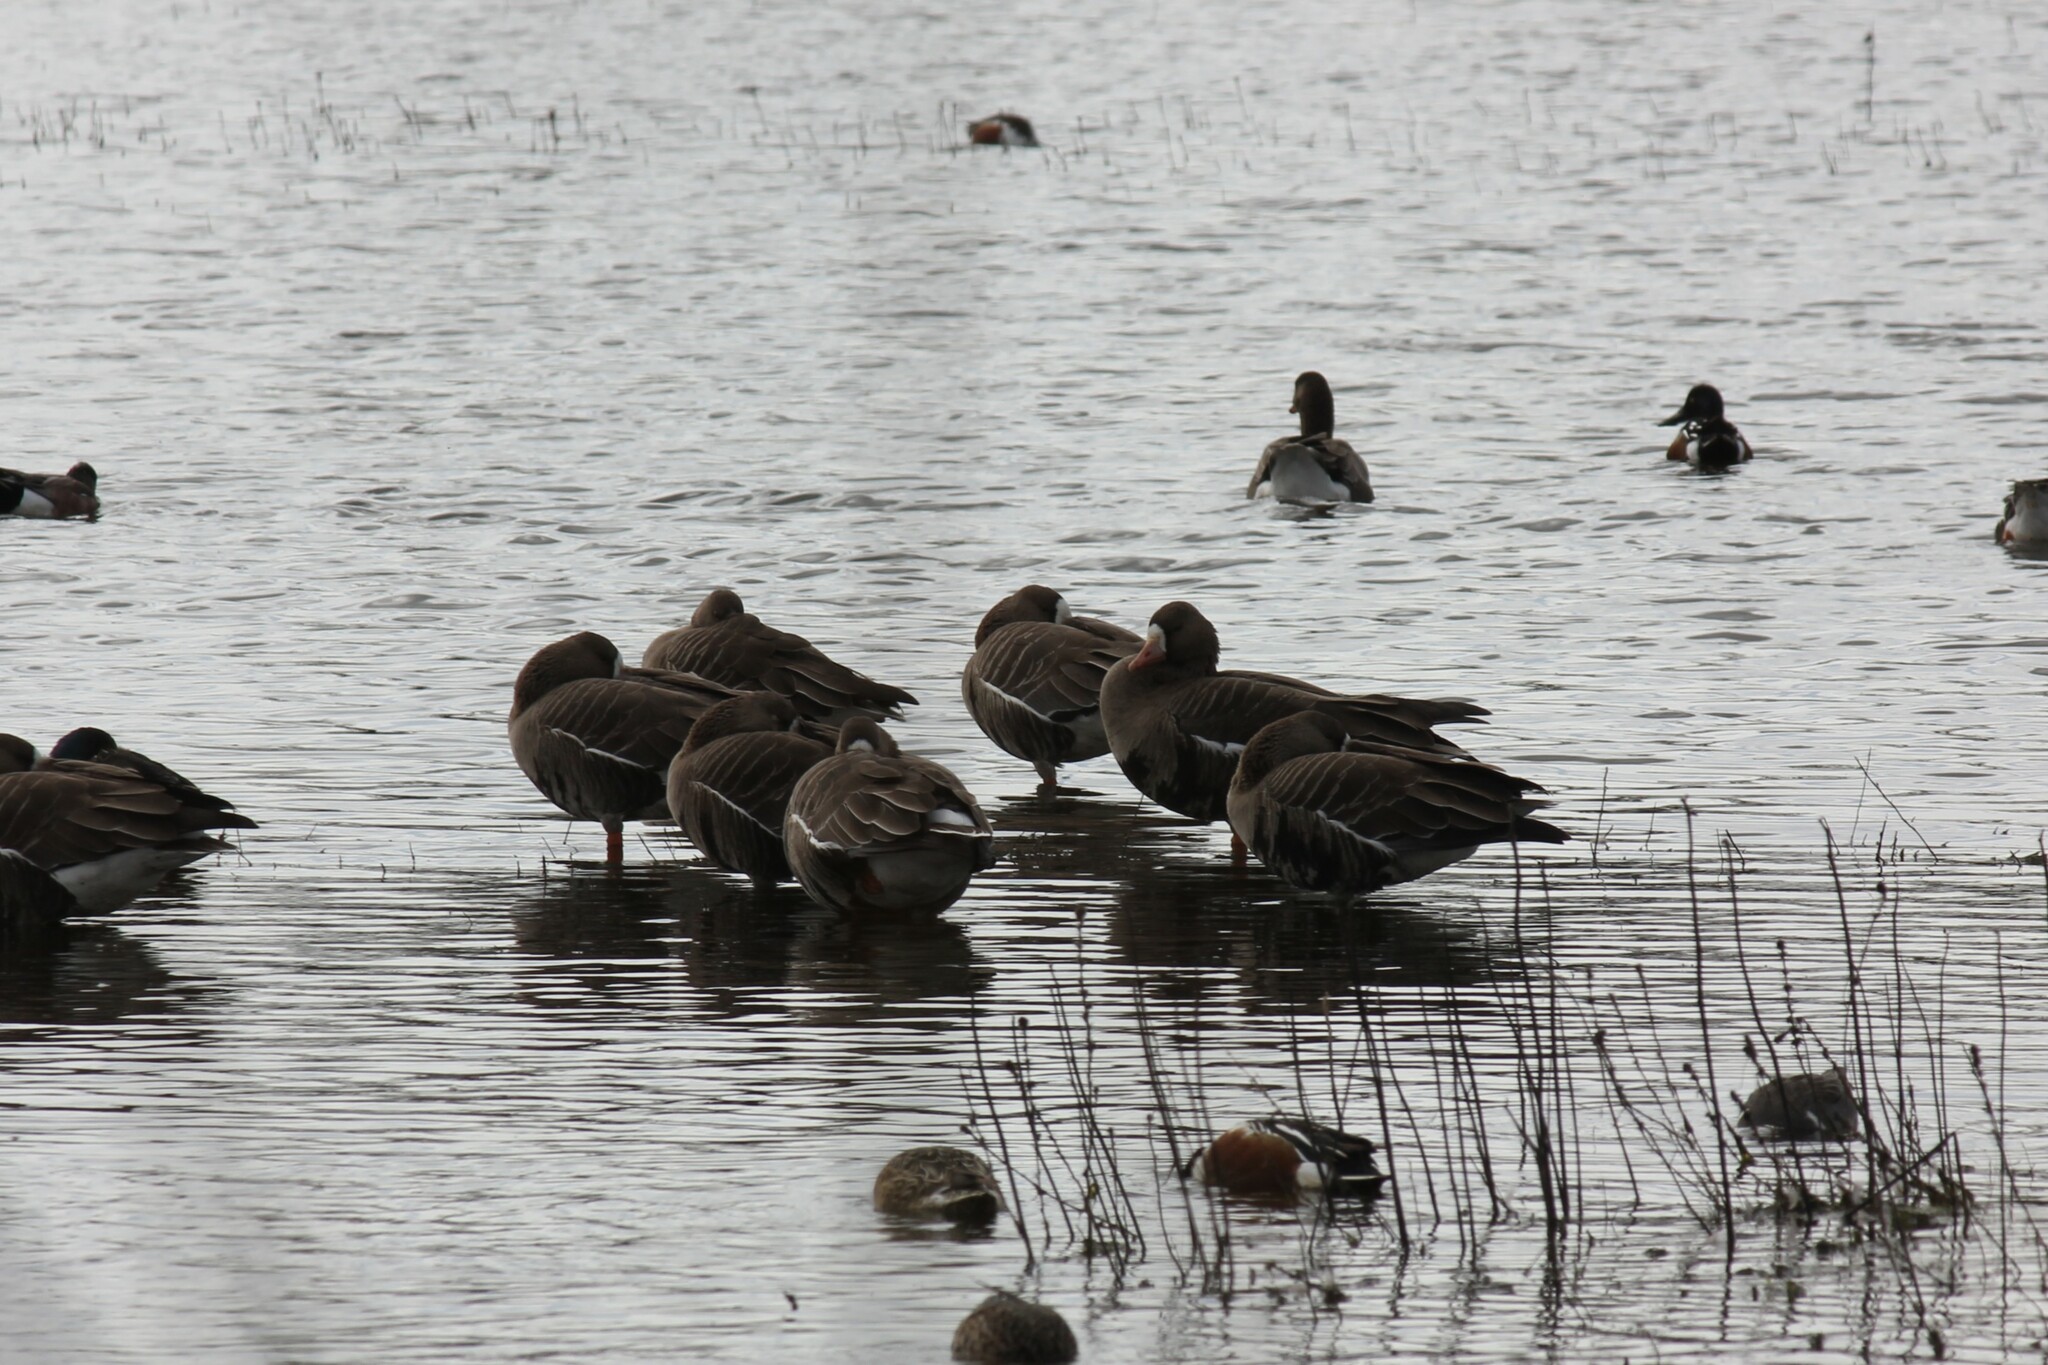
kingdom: Animalia
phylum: Chordata
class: Aves
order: Anseriformes
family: Anatidae
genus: Anser
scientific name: Anser albifrons
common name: Greater white-fronted goose
